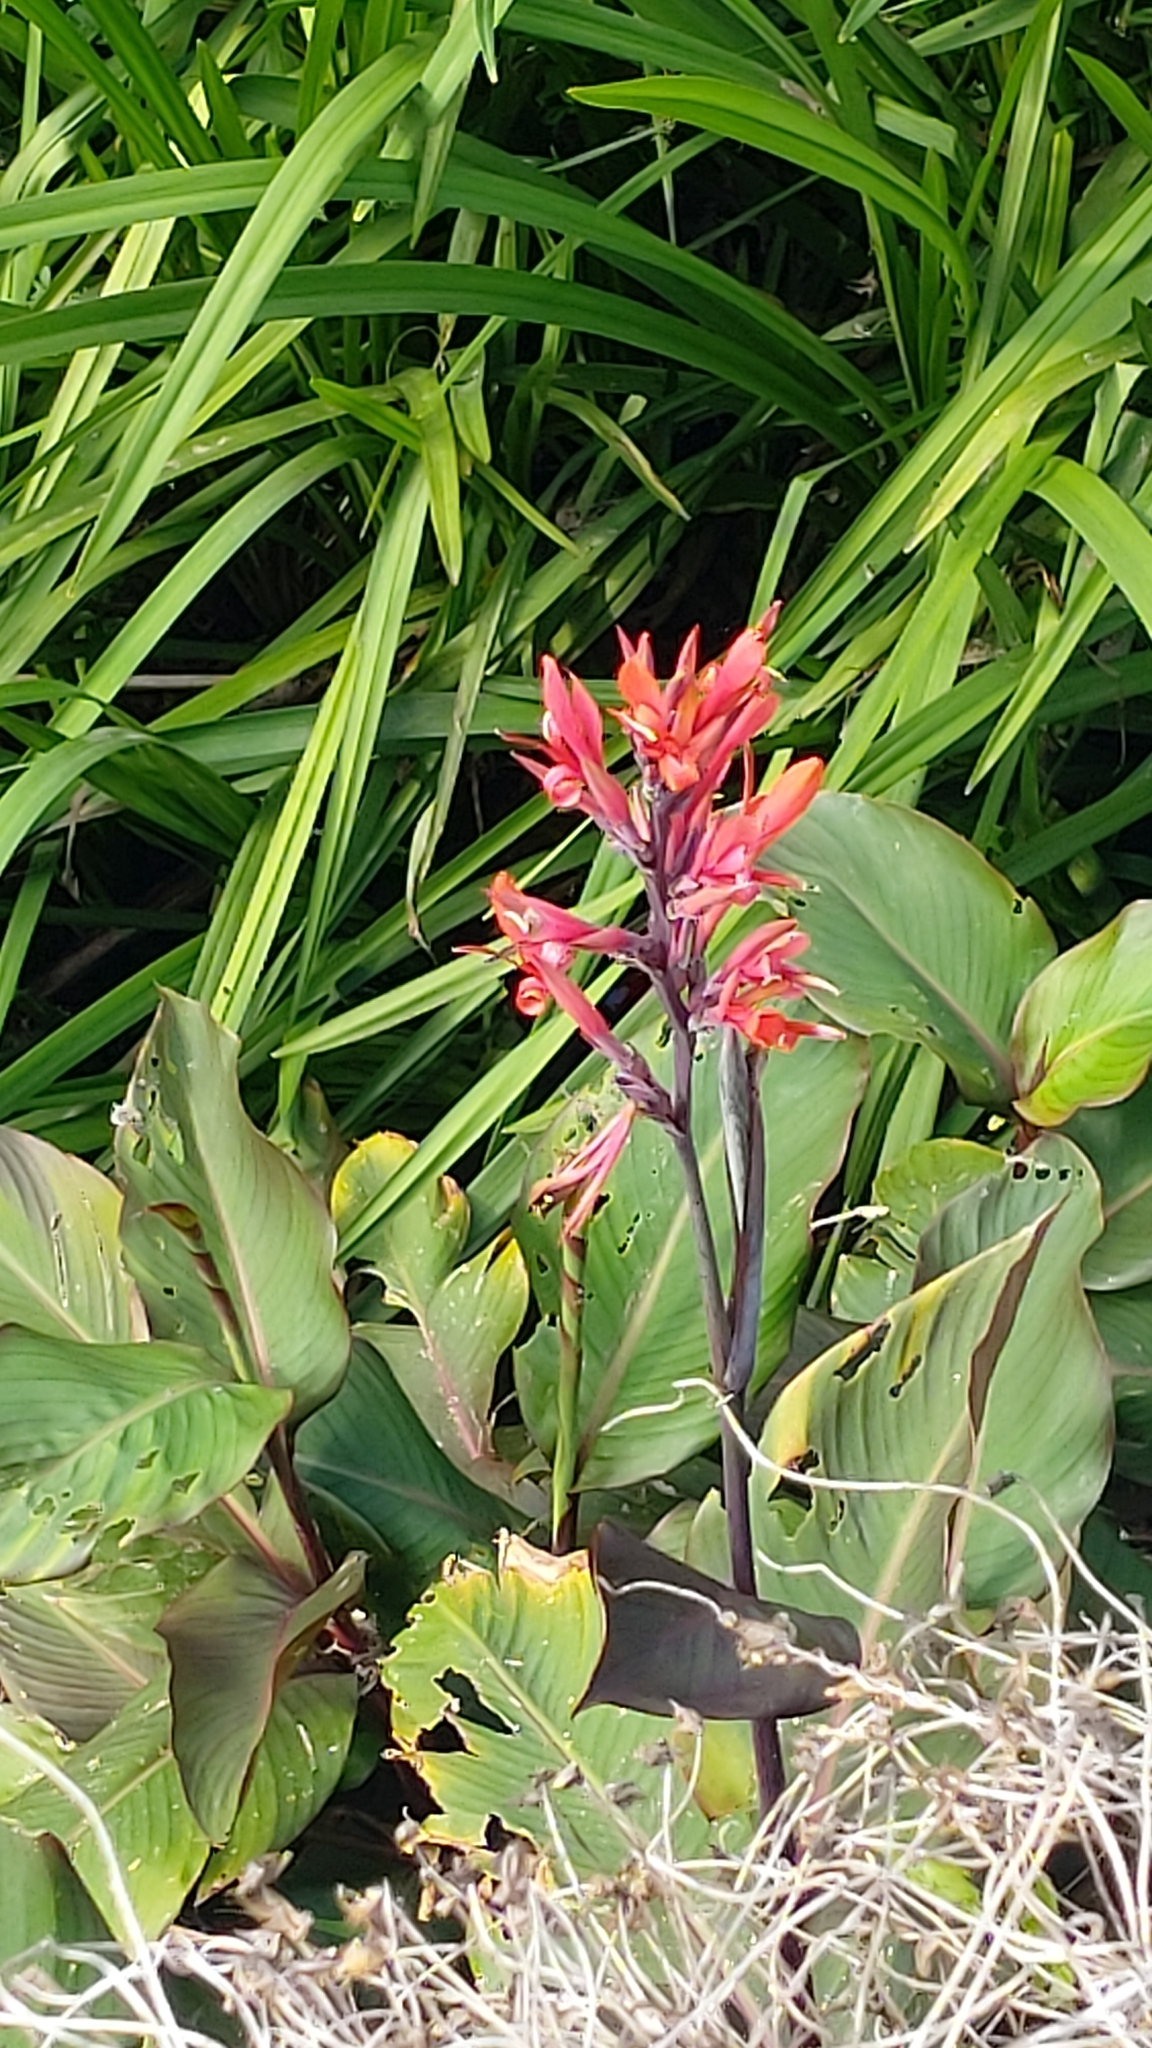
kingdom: Plantae
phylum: Tracheophyta
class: Liliopsida
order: Zingiberales
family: Cannaceae
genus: Canna
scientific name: Canna indica
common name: Indian shot
